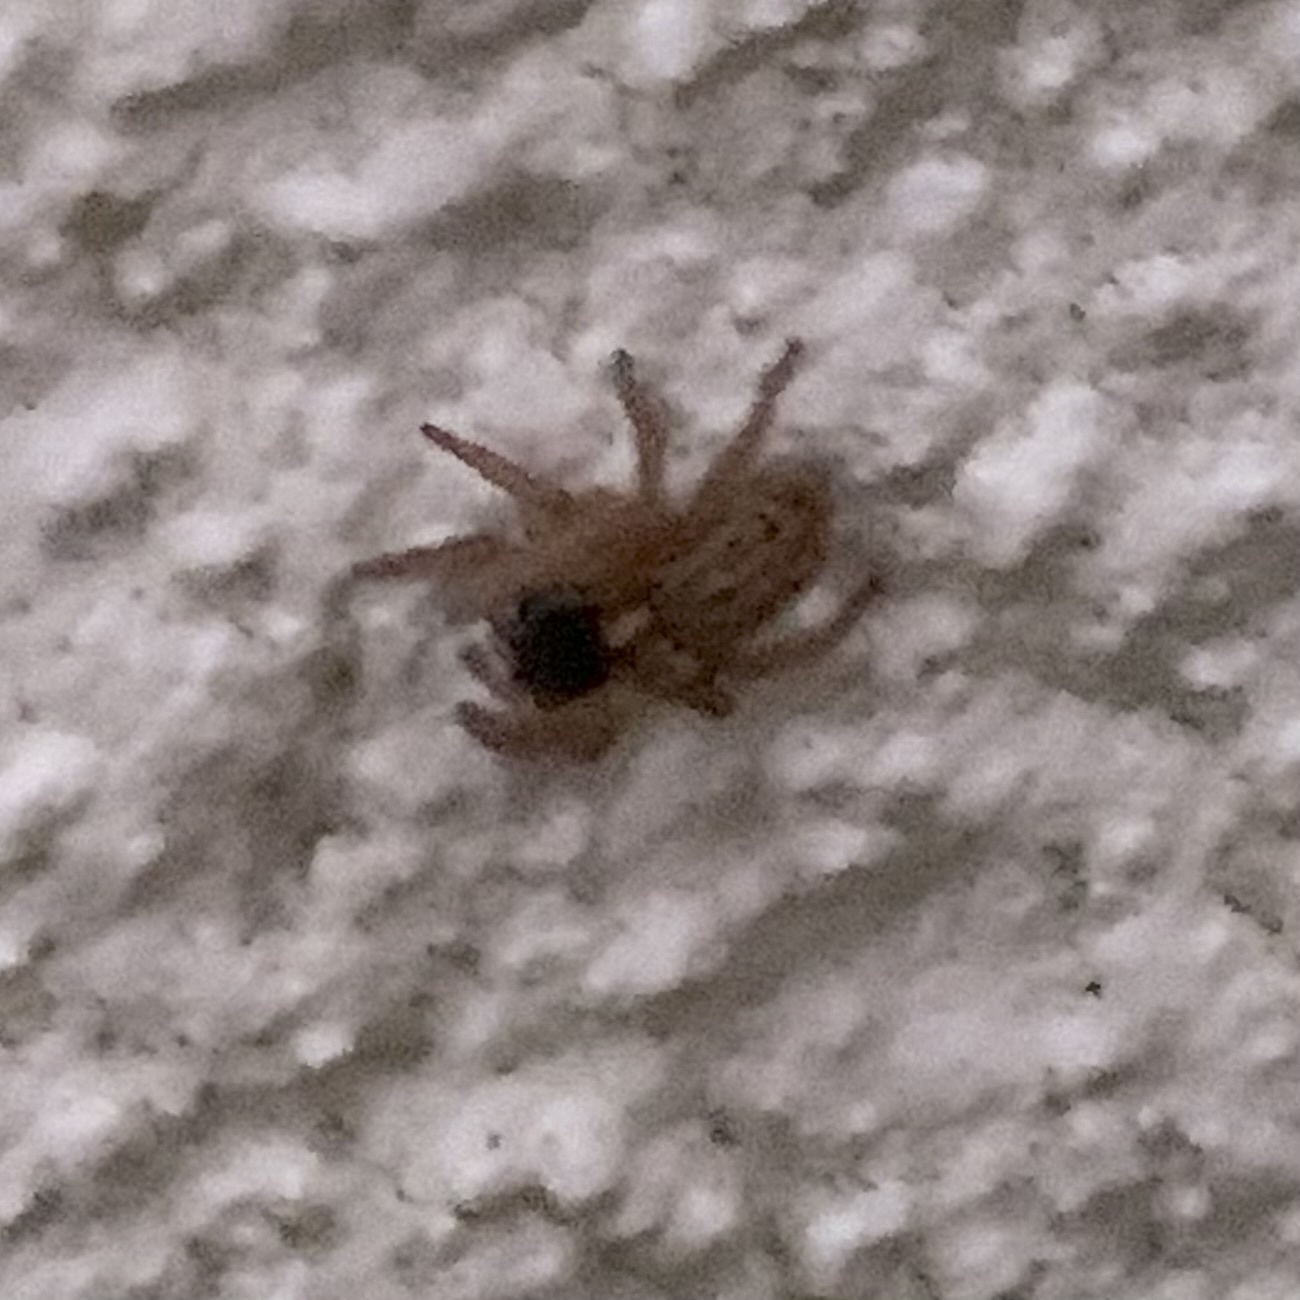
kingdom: Animalia
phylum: Arthropoda
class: Arachnida
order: Araneae
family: Salticidae
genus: Saitis
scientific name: Saitis barbipes
